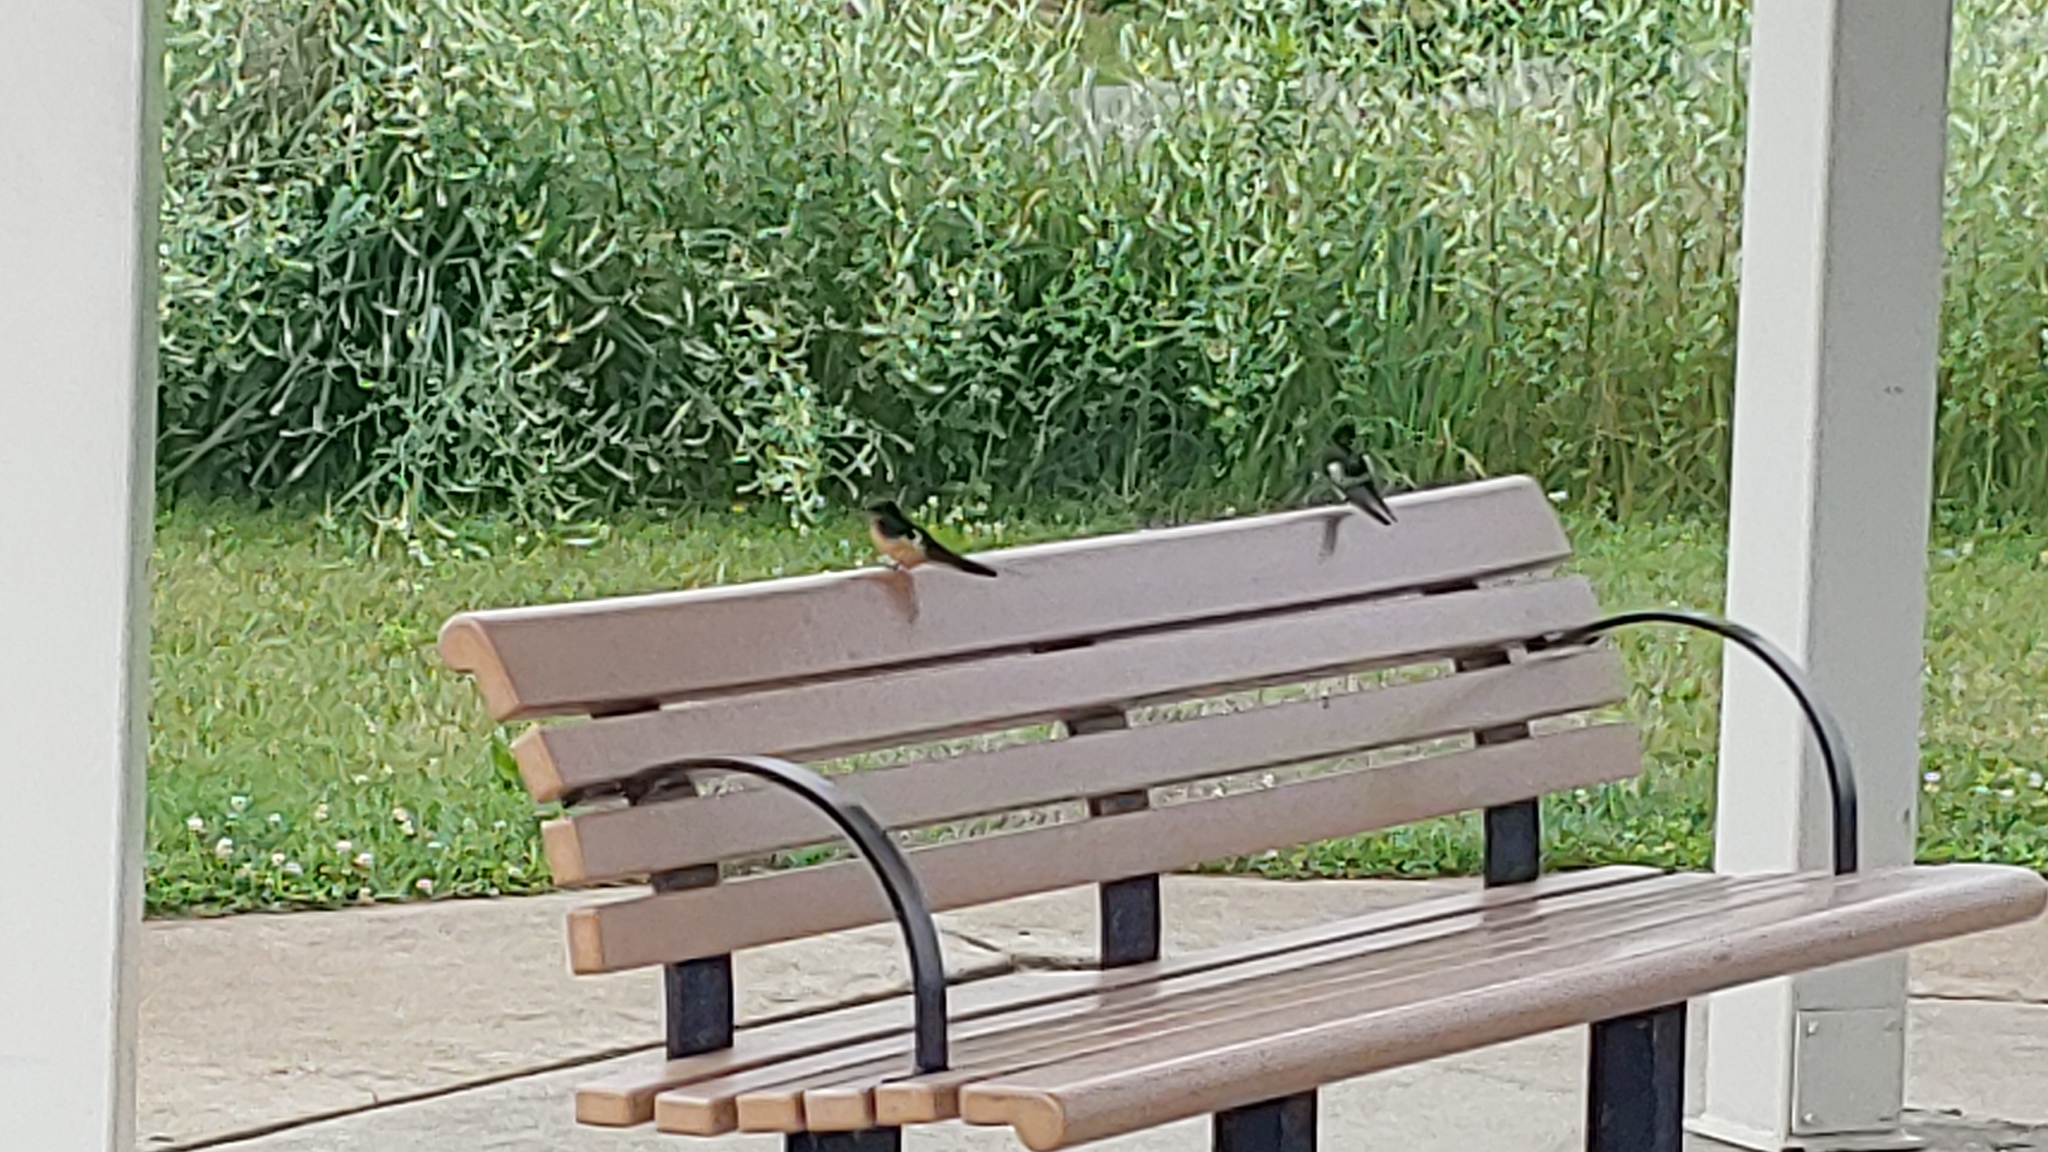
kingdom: Animalia
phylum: Chordata
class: Aves
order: Passeriformes
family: Hirundinidae
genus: Hirundo
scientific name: Hirundo rustica
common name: Barn swallow
